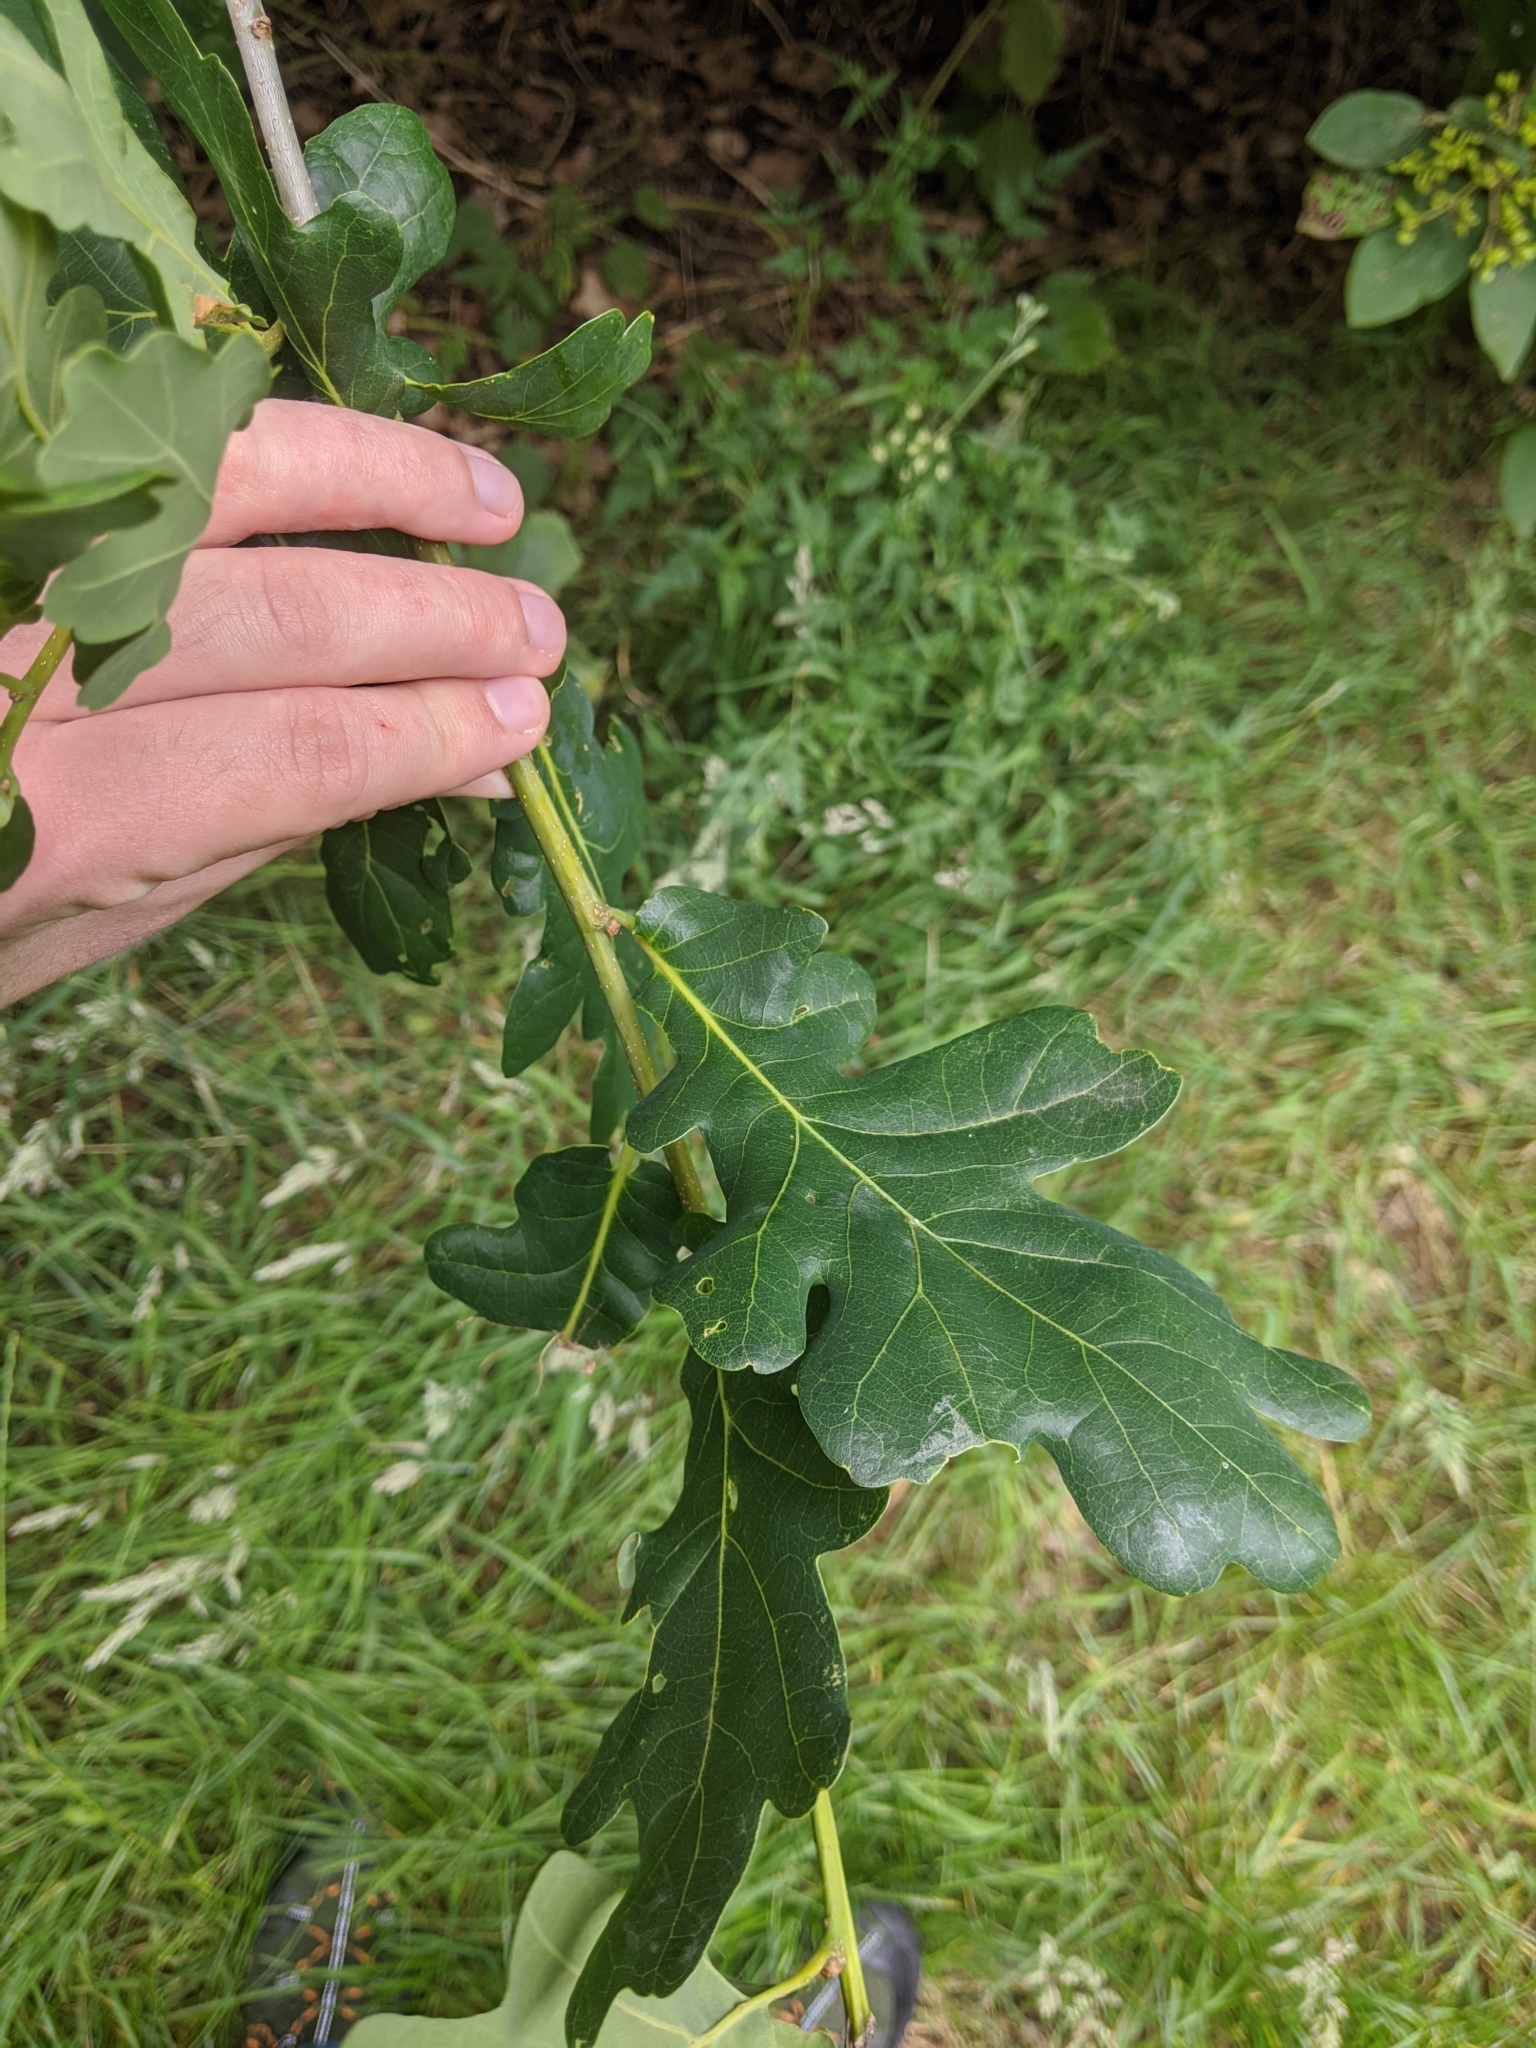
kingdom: Plantae
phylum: Tracheophyta
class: Magnoliopsida
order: Fagales
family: Fagaceae
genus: Quercus
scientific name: Quercus robur
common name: Pedunculate oak
